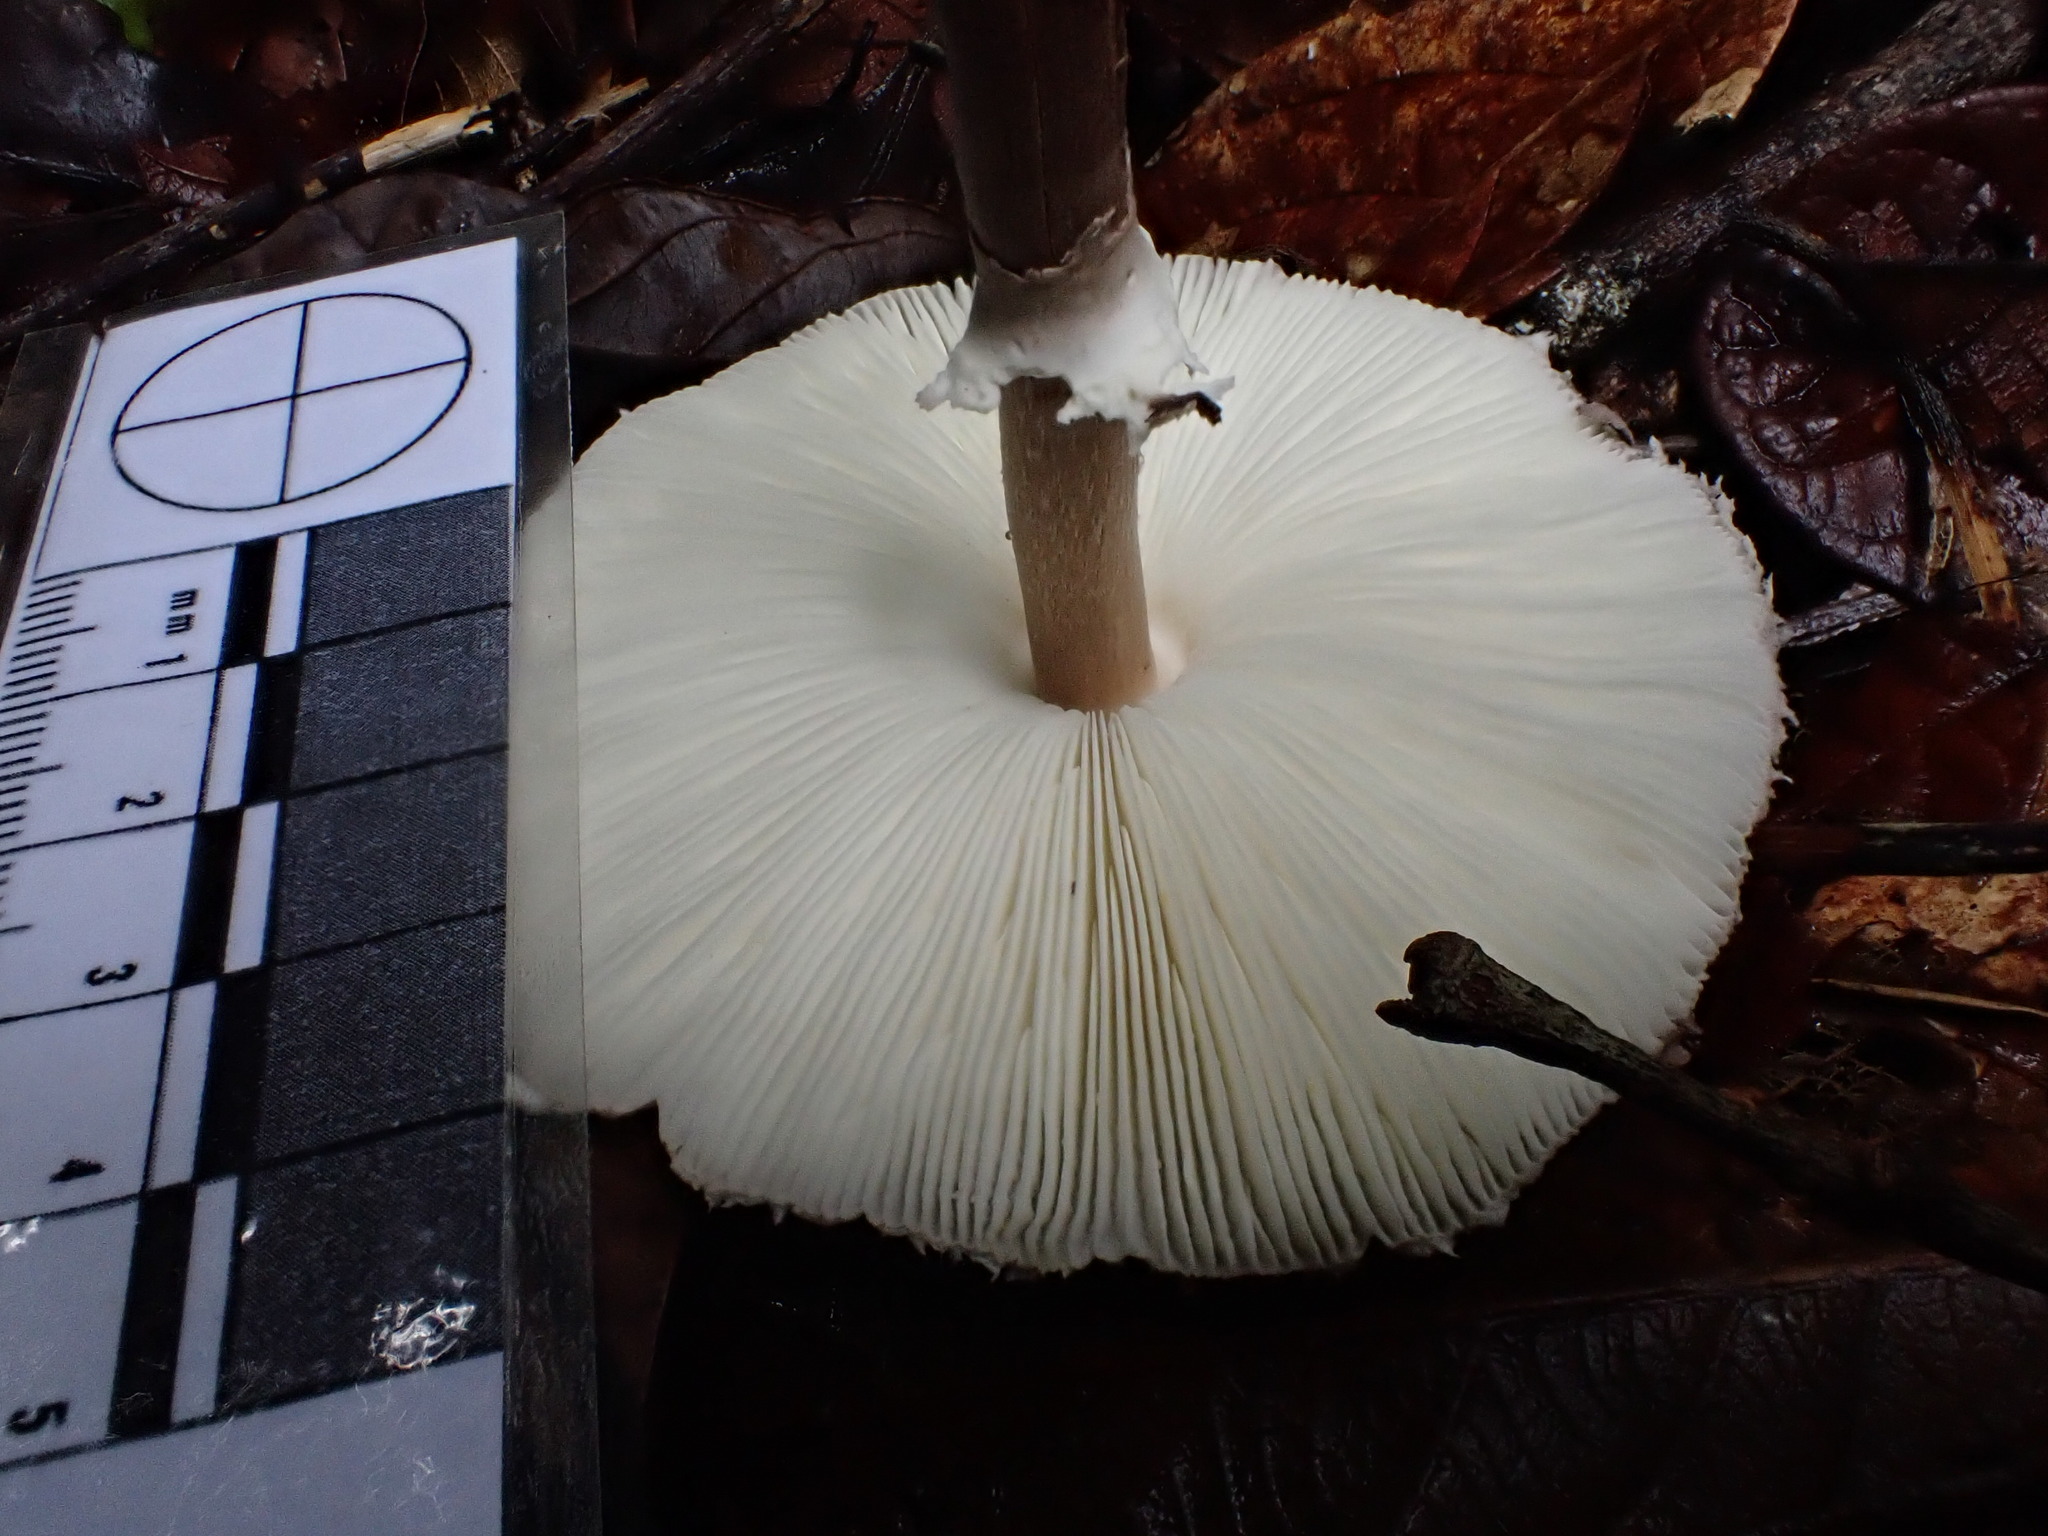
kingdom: Fungi
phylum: Basidiomycota
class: Agaricomycetes
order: Agaricales
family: Agaricaceae
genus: Macrolepiota
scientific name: Macrolepiota eucharis
